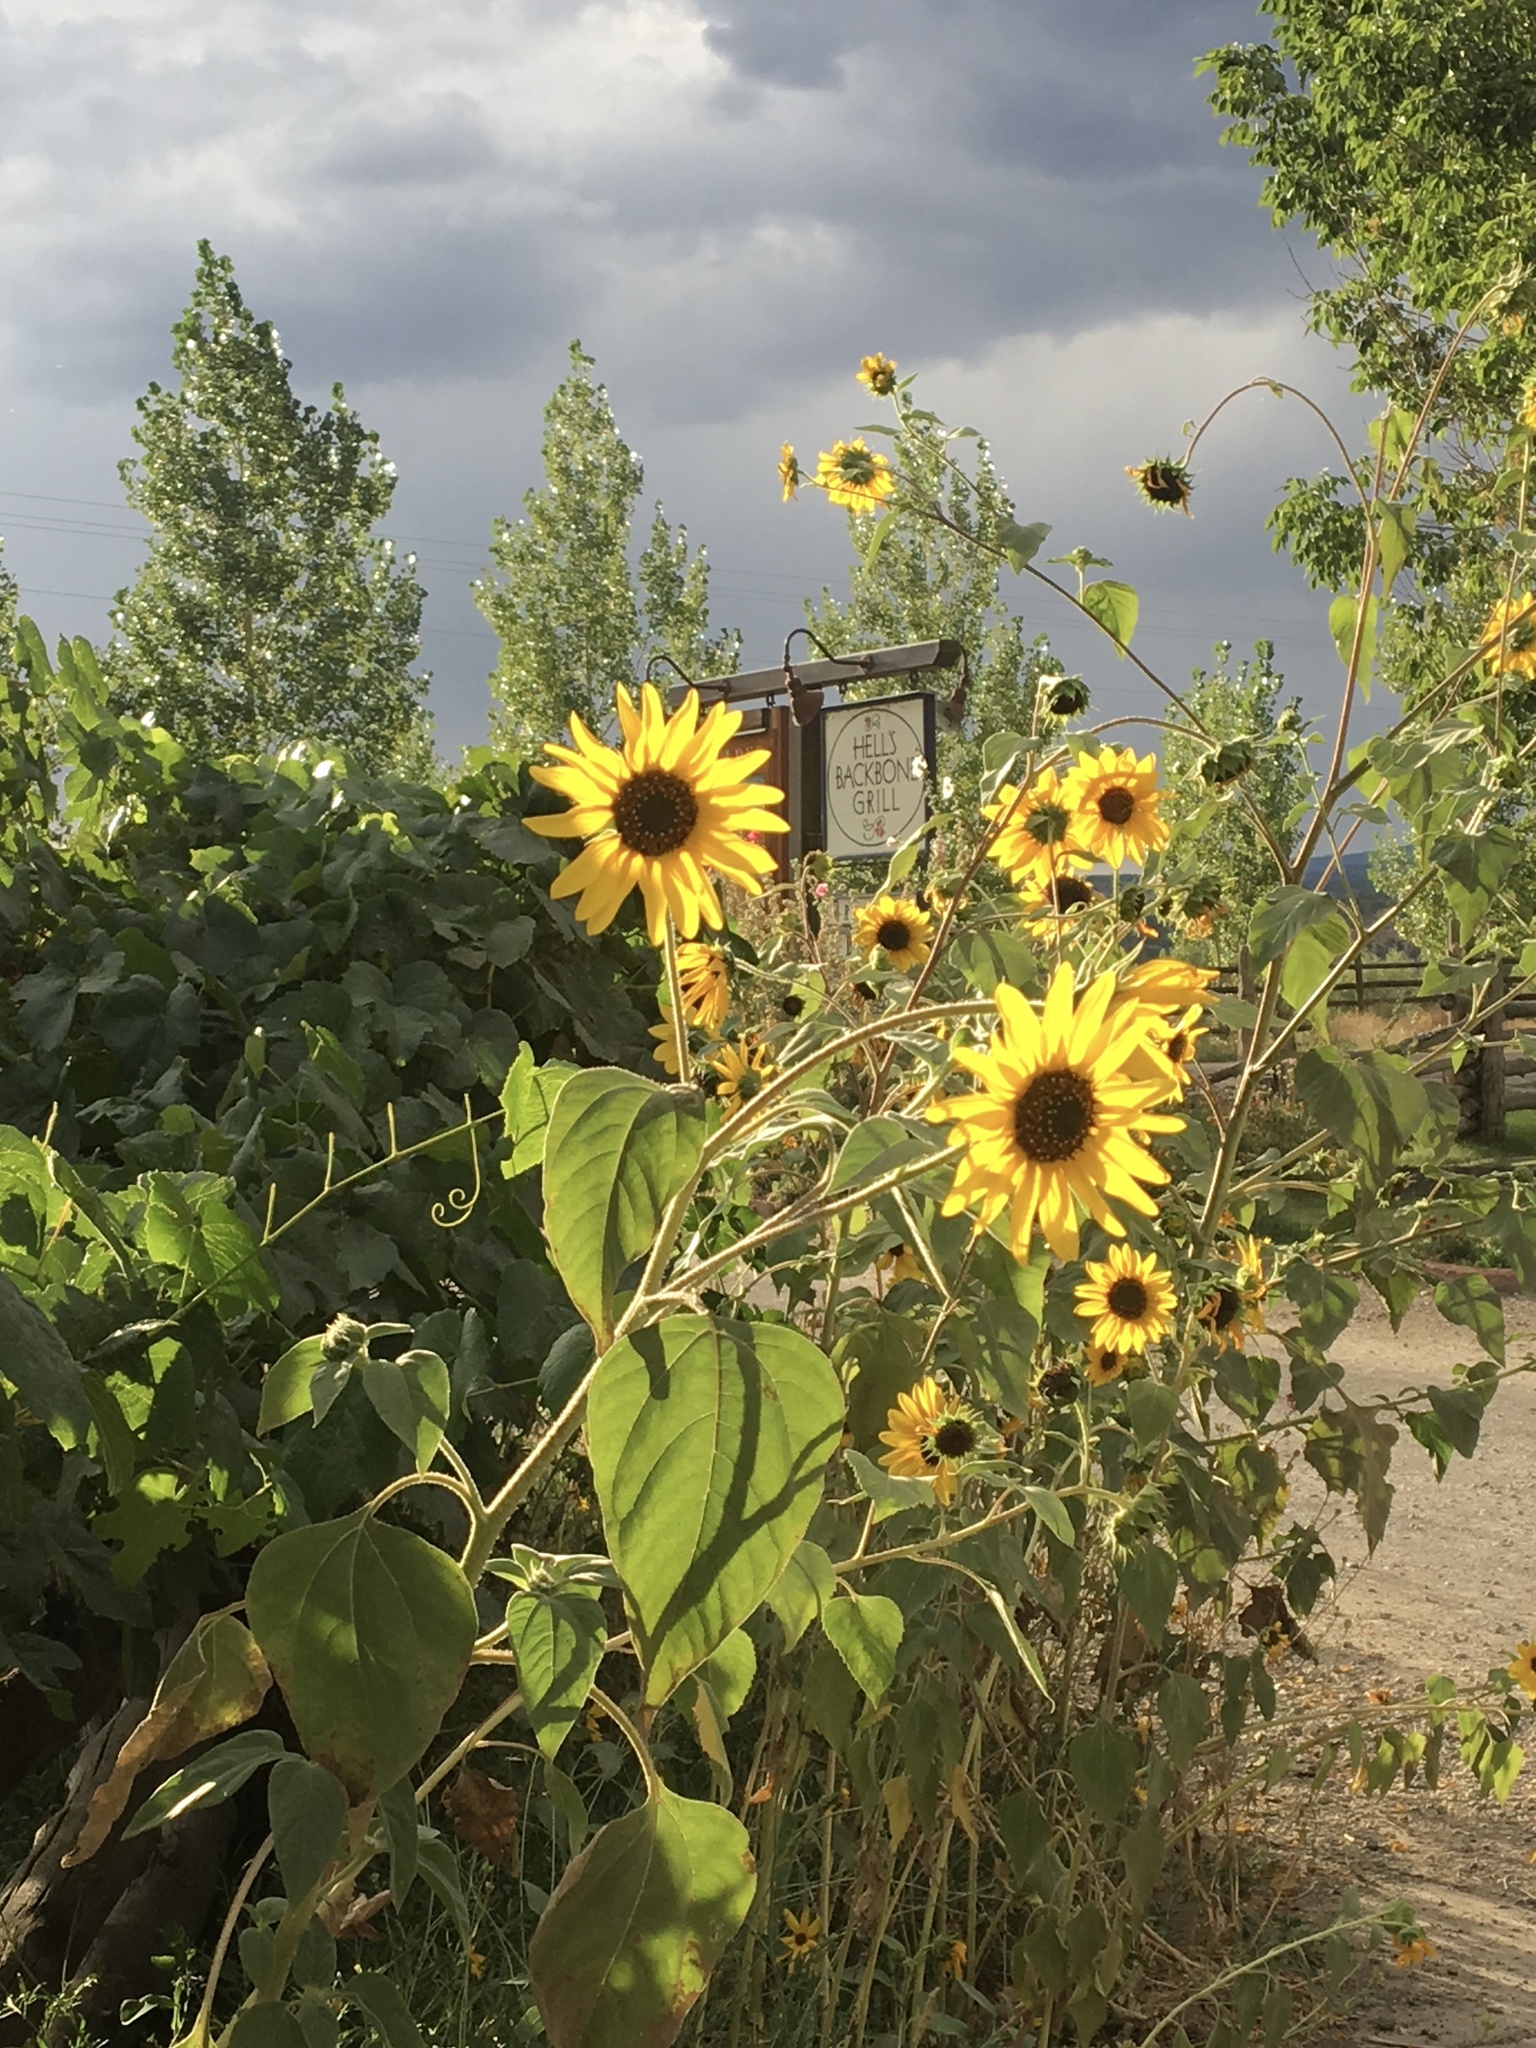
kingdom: Plantae
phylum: Tracheophyta
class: Magnoliopsida
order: Asterales
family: Asteraceae
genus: Helianthus
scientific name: Helianthus annuus
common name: Sunflower
